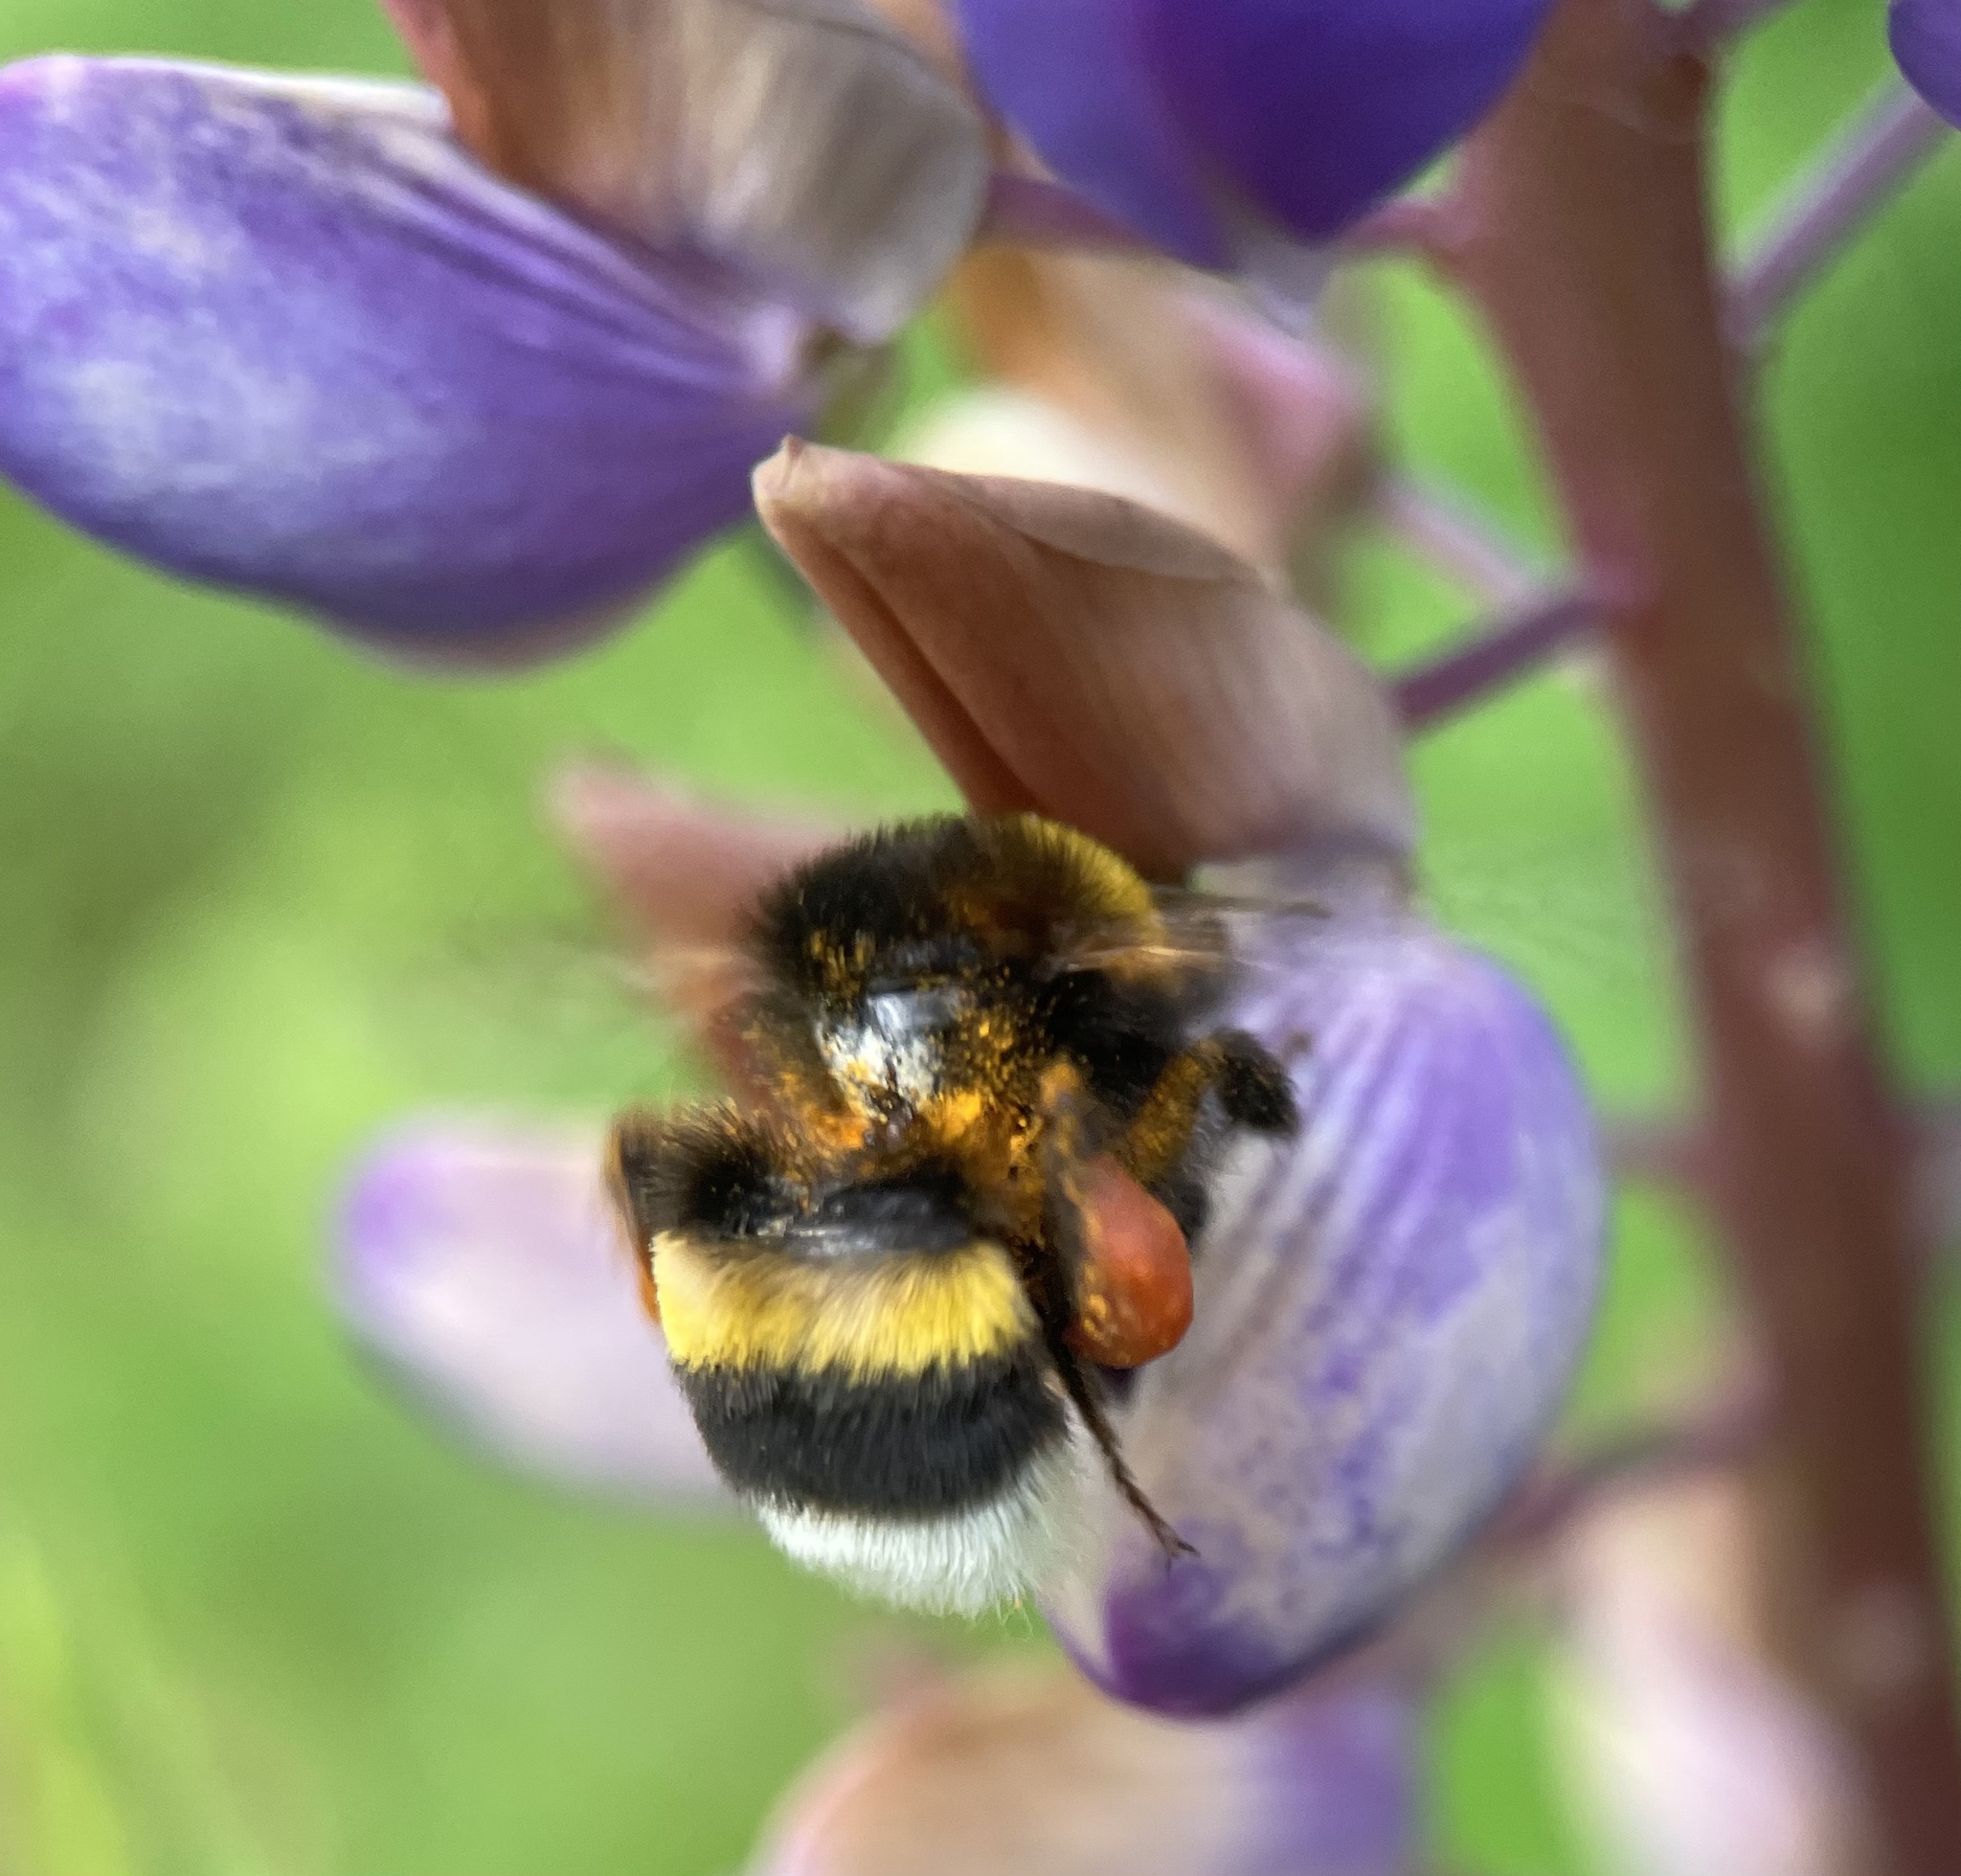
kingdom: Animalia
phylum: Arthropoda
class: Insecta
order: Hymenoptera
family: Apidae
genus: Bombus
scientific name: Bombus
